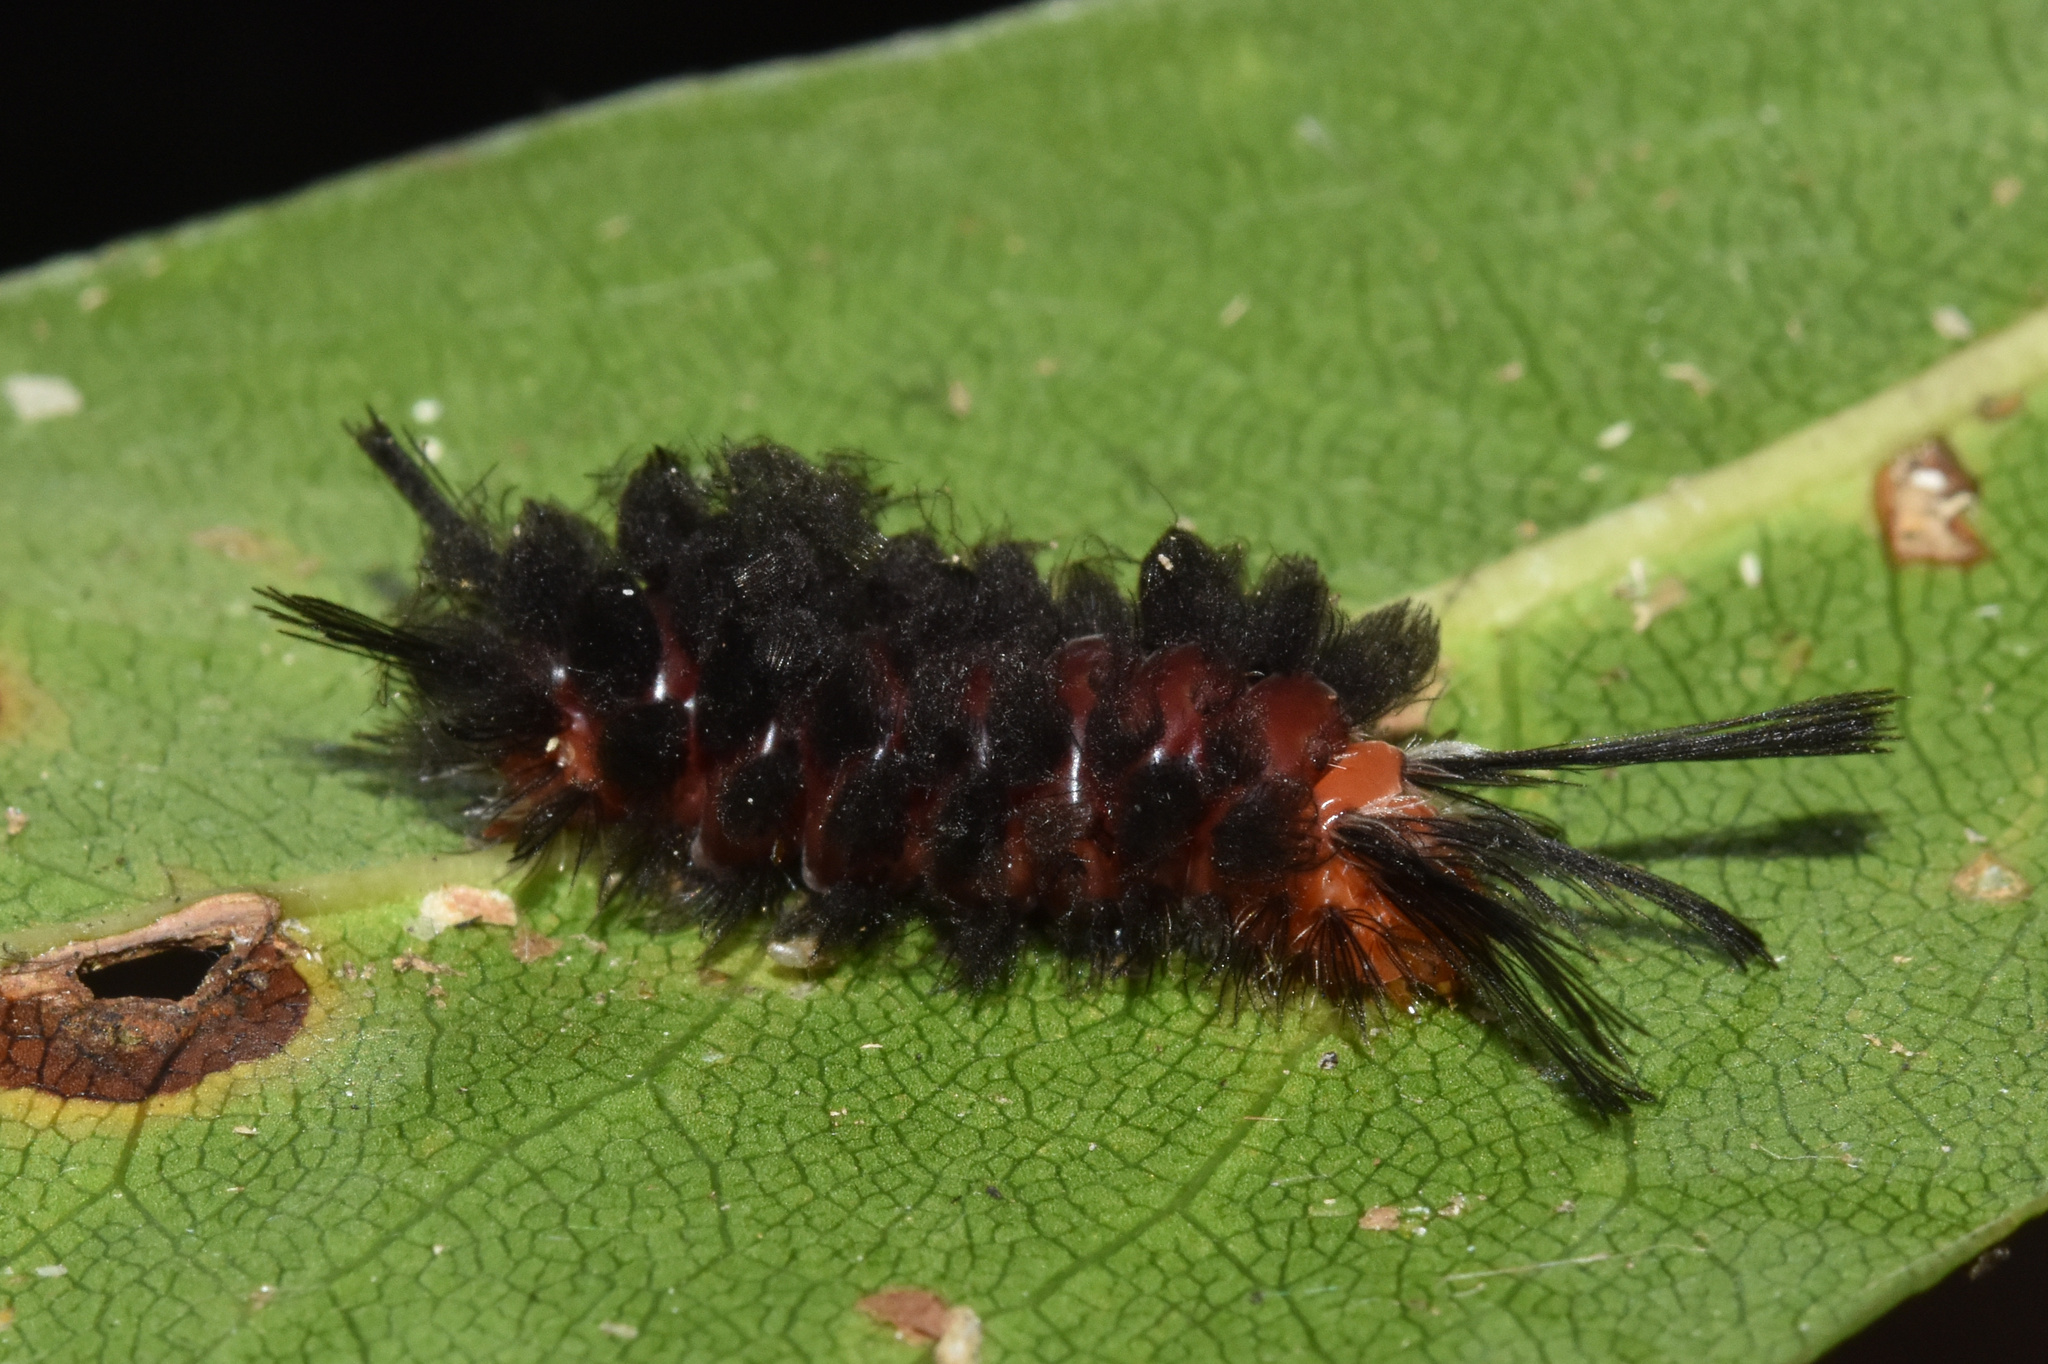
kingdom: Animalia
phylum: Arthropoda
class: Insecta
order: Lepidoptera
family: Erebidae
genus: Euchromia
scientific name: Euchromia amoena
